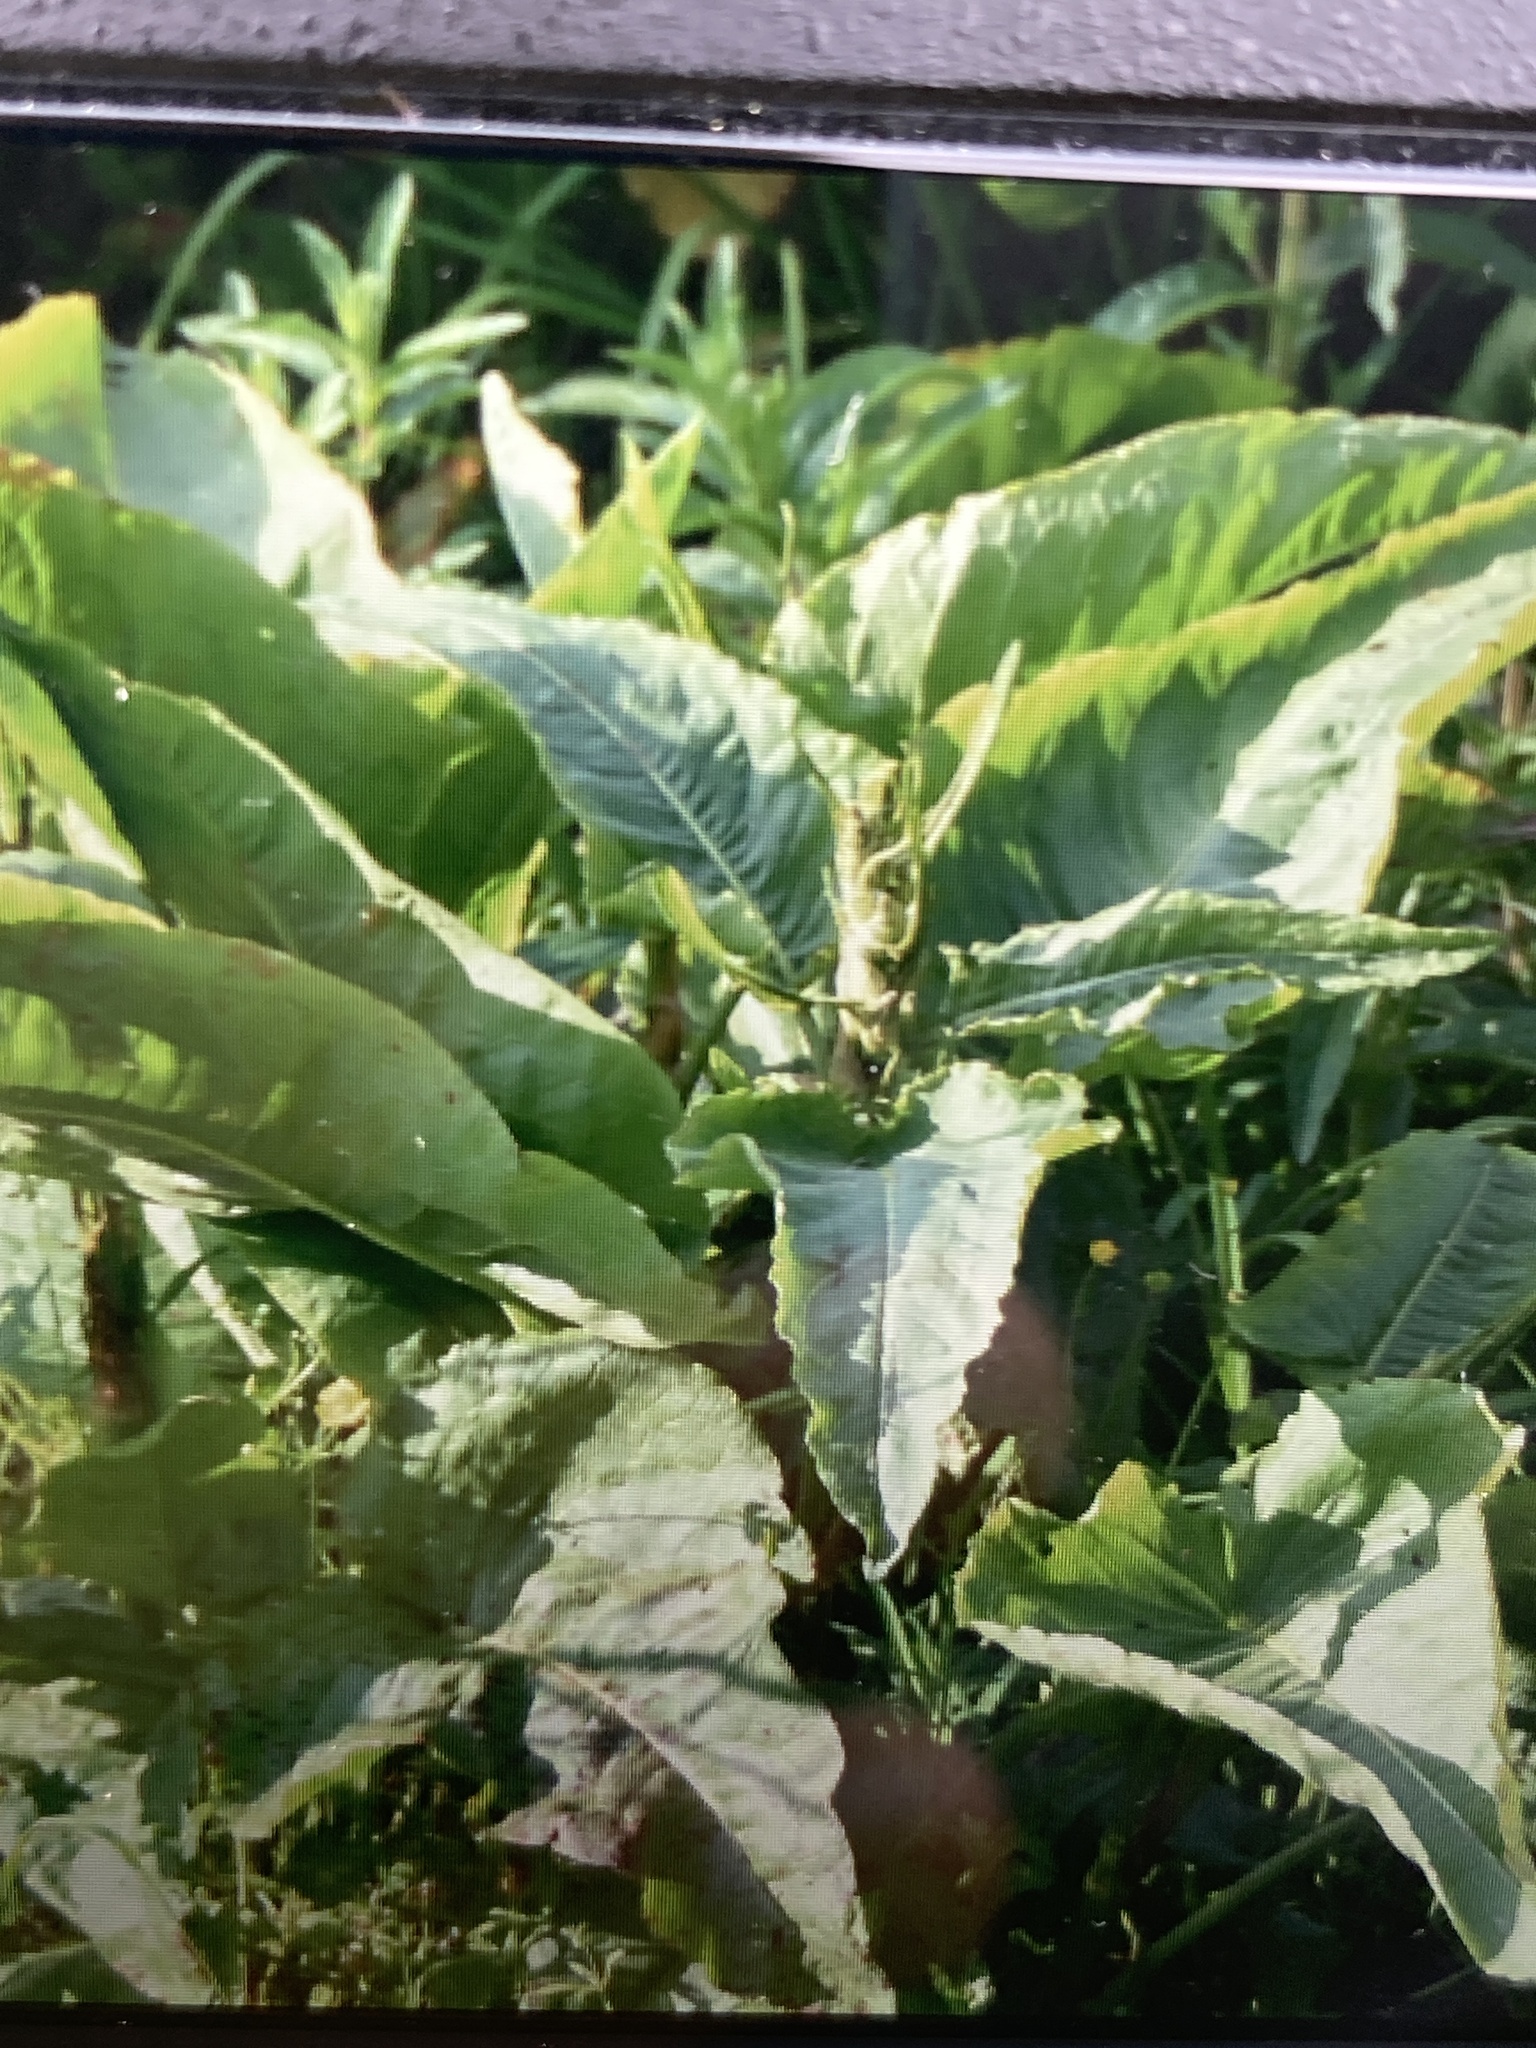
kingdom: Plantae
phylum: Tracheophyta
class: Magnoliopsida
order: Caryophyllales
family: Polygonaceae
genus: Rumex
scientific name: Rumex aquaticus
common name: Scottish dock
